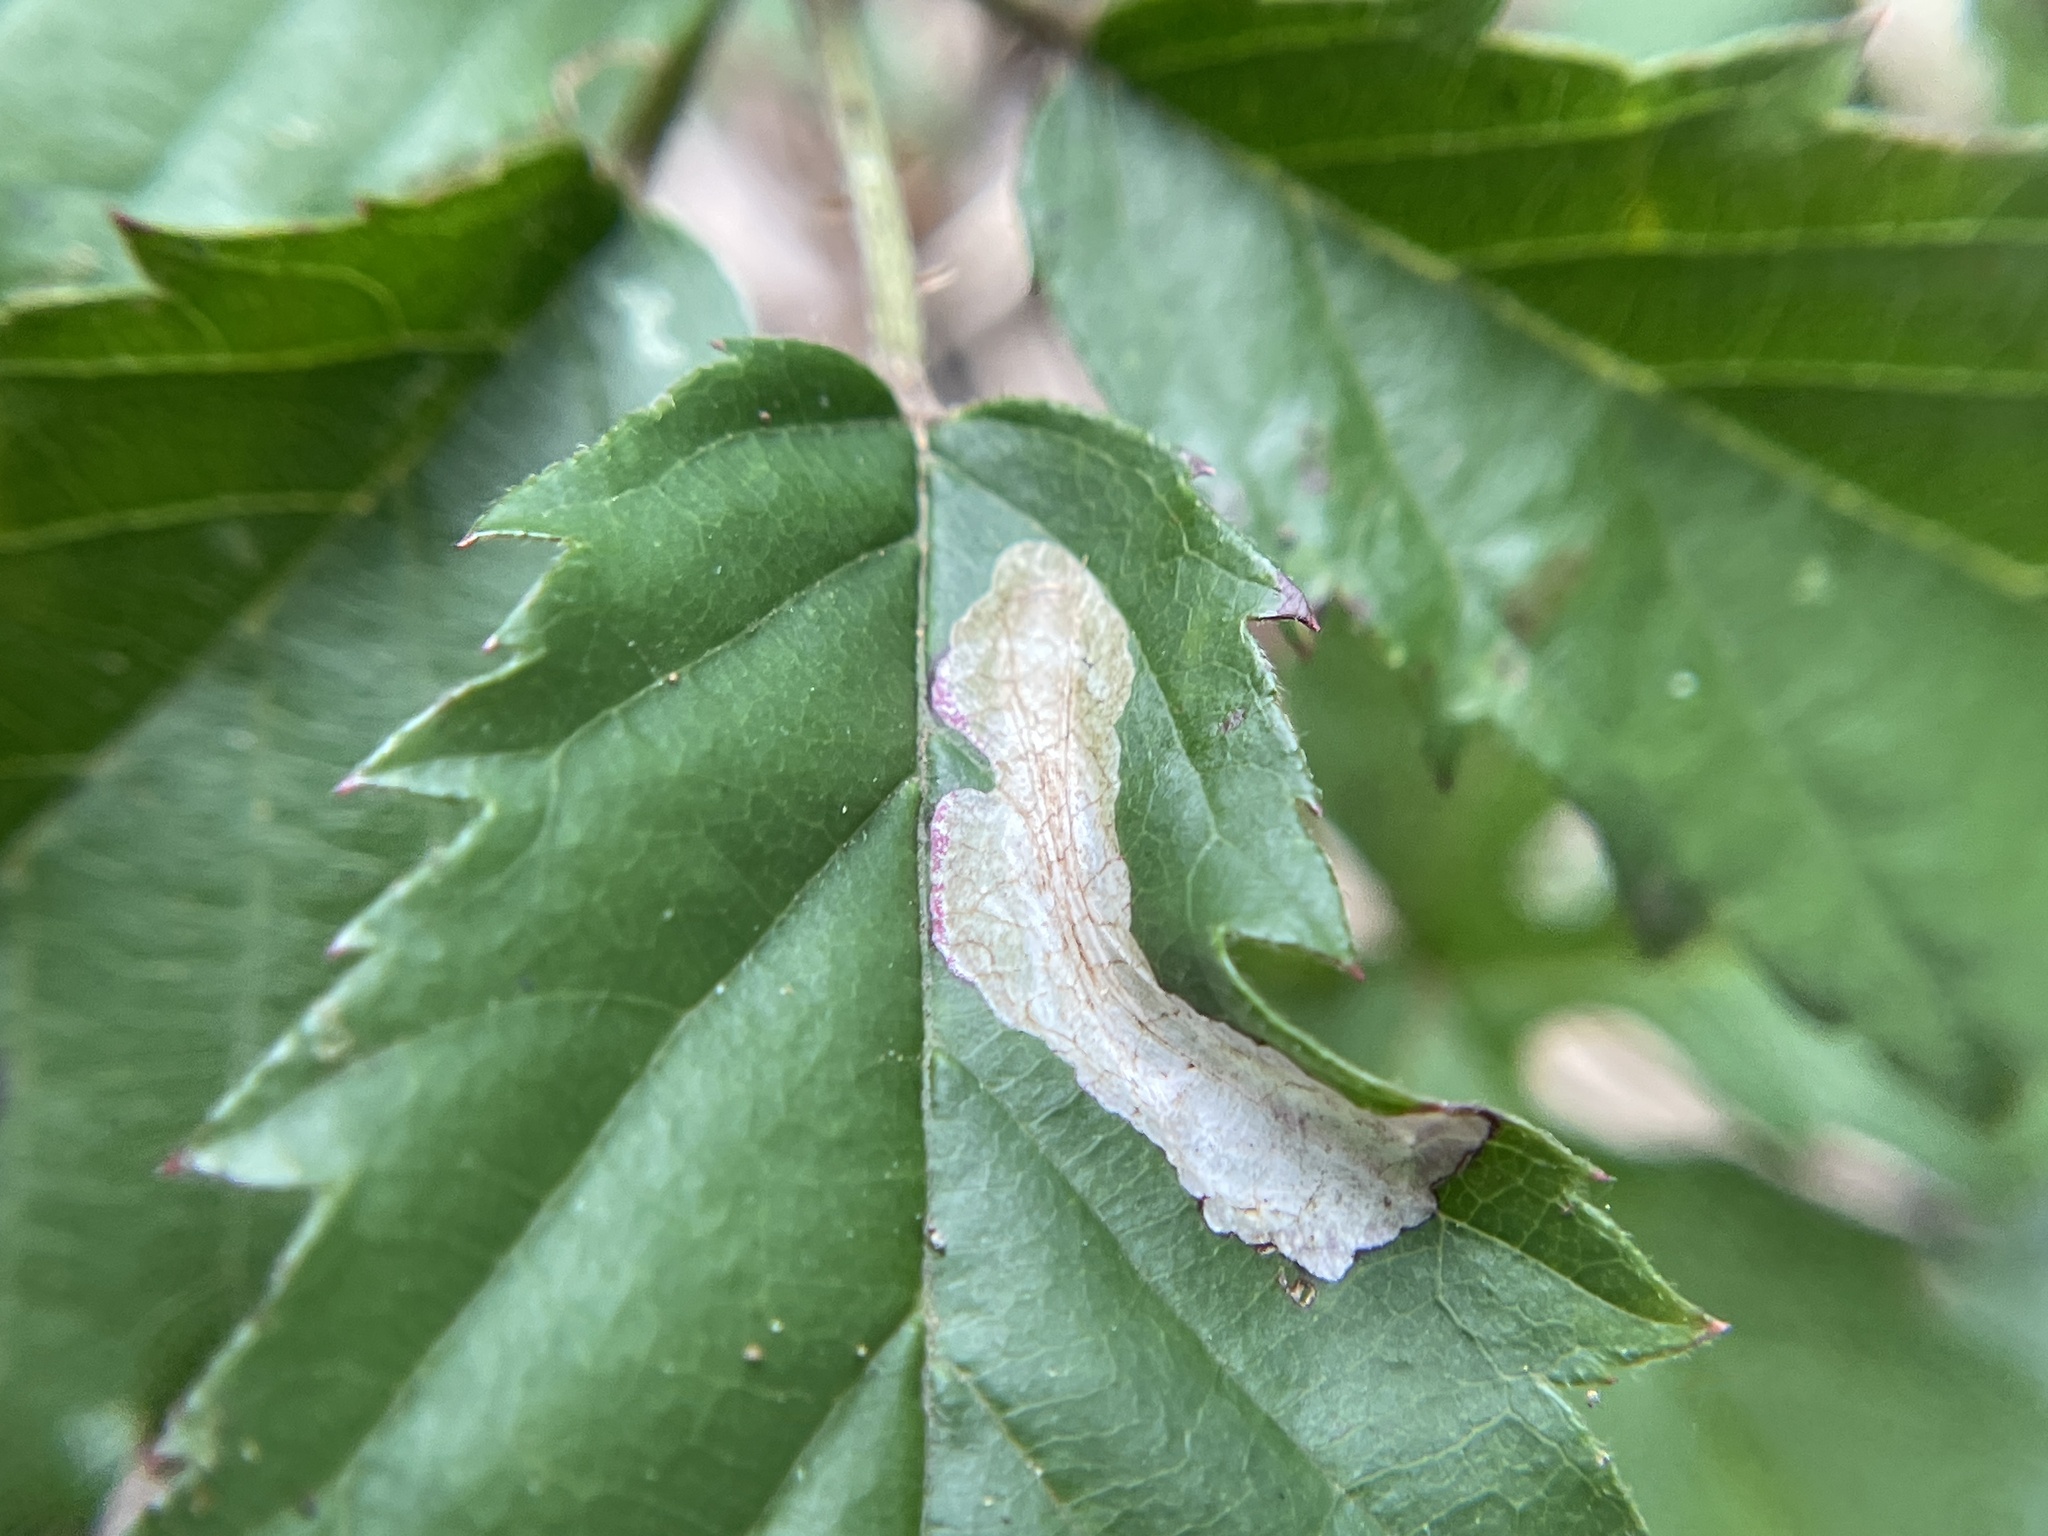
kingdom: Animalia
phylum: Arthropoda
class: Insecta
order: Lepidoptera
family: Tischeriidae
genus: Coptotriche
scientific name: Coptotriche aenea
